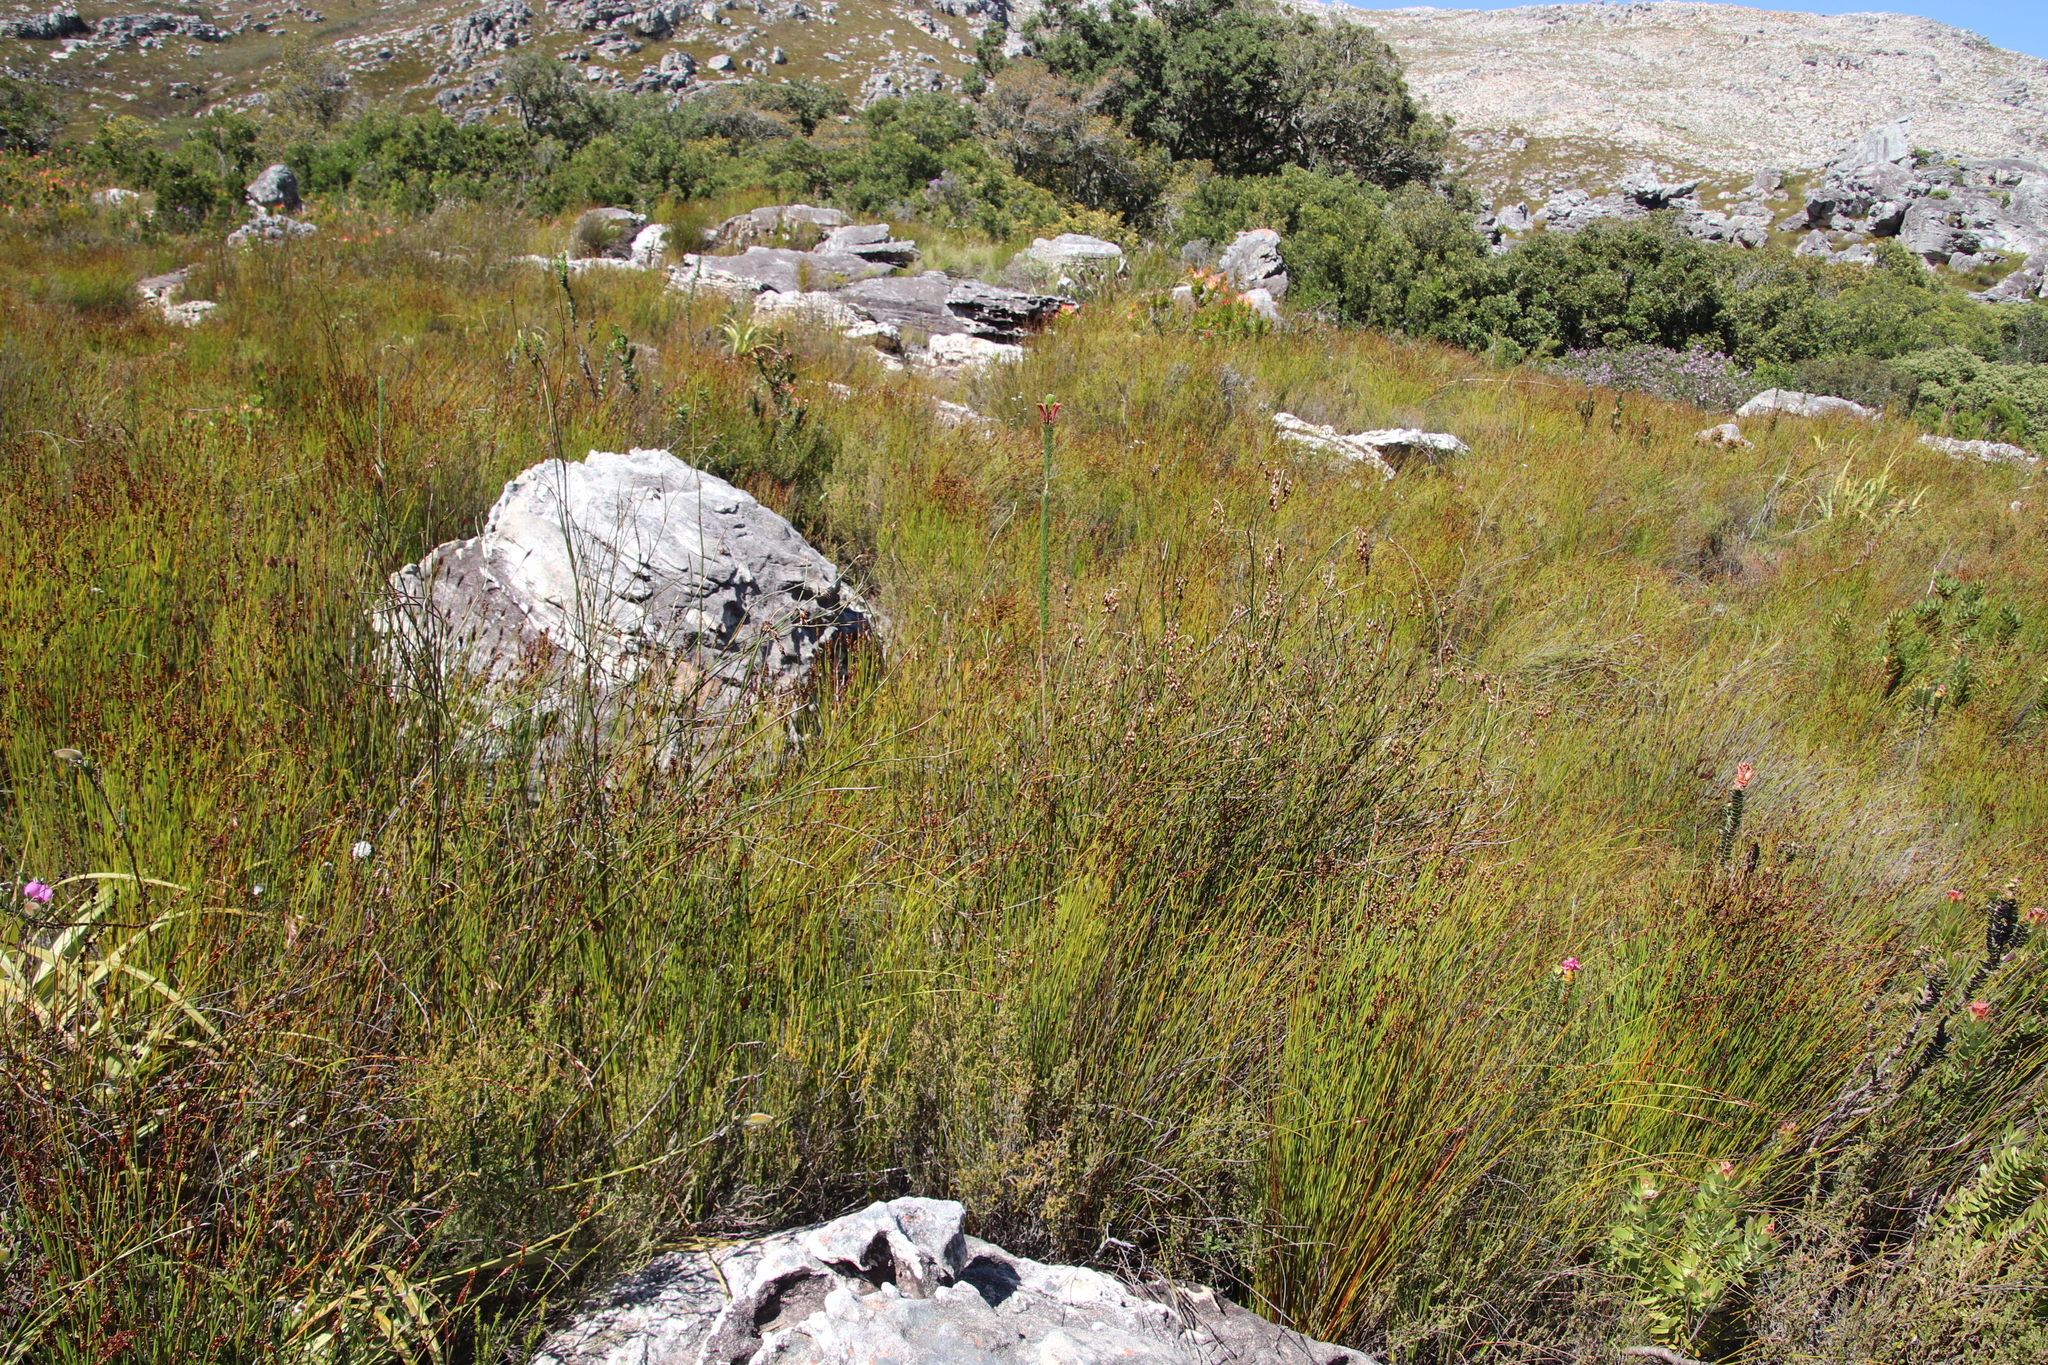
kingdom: Plantae
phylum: Tracheophyta
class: Magnoliopsida
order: Ericales
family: Ericaceae
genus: Erica
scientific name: Erica fascicularis
